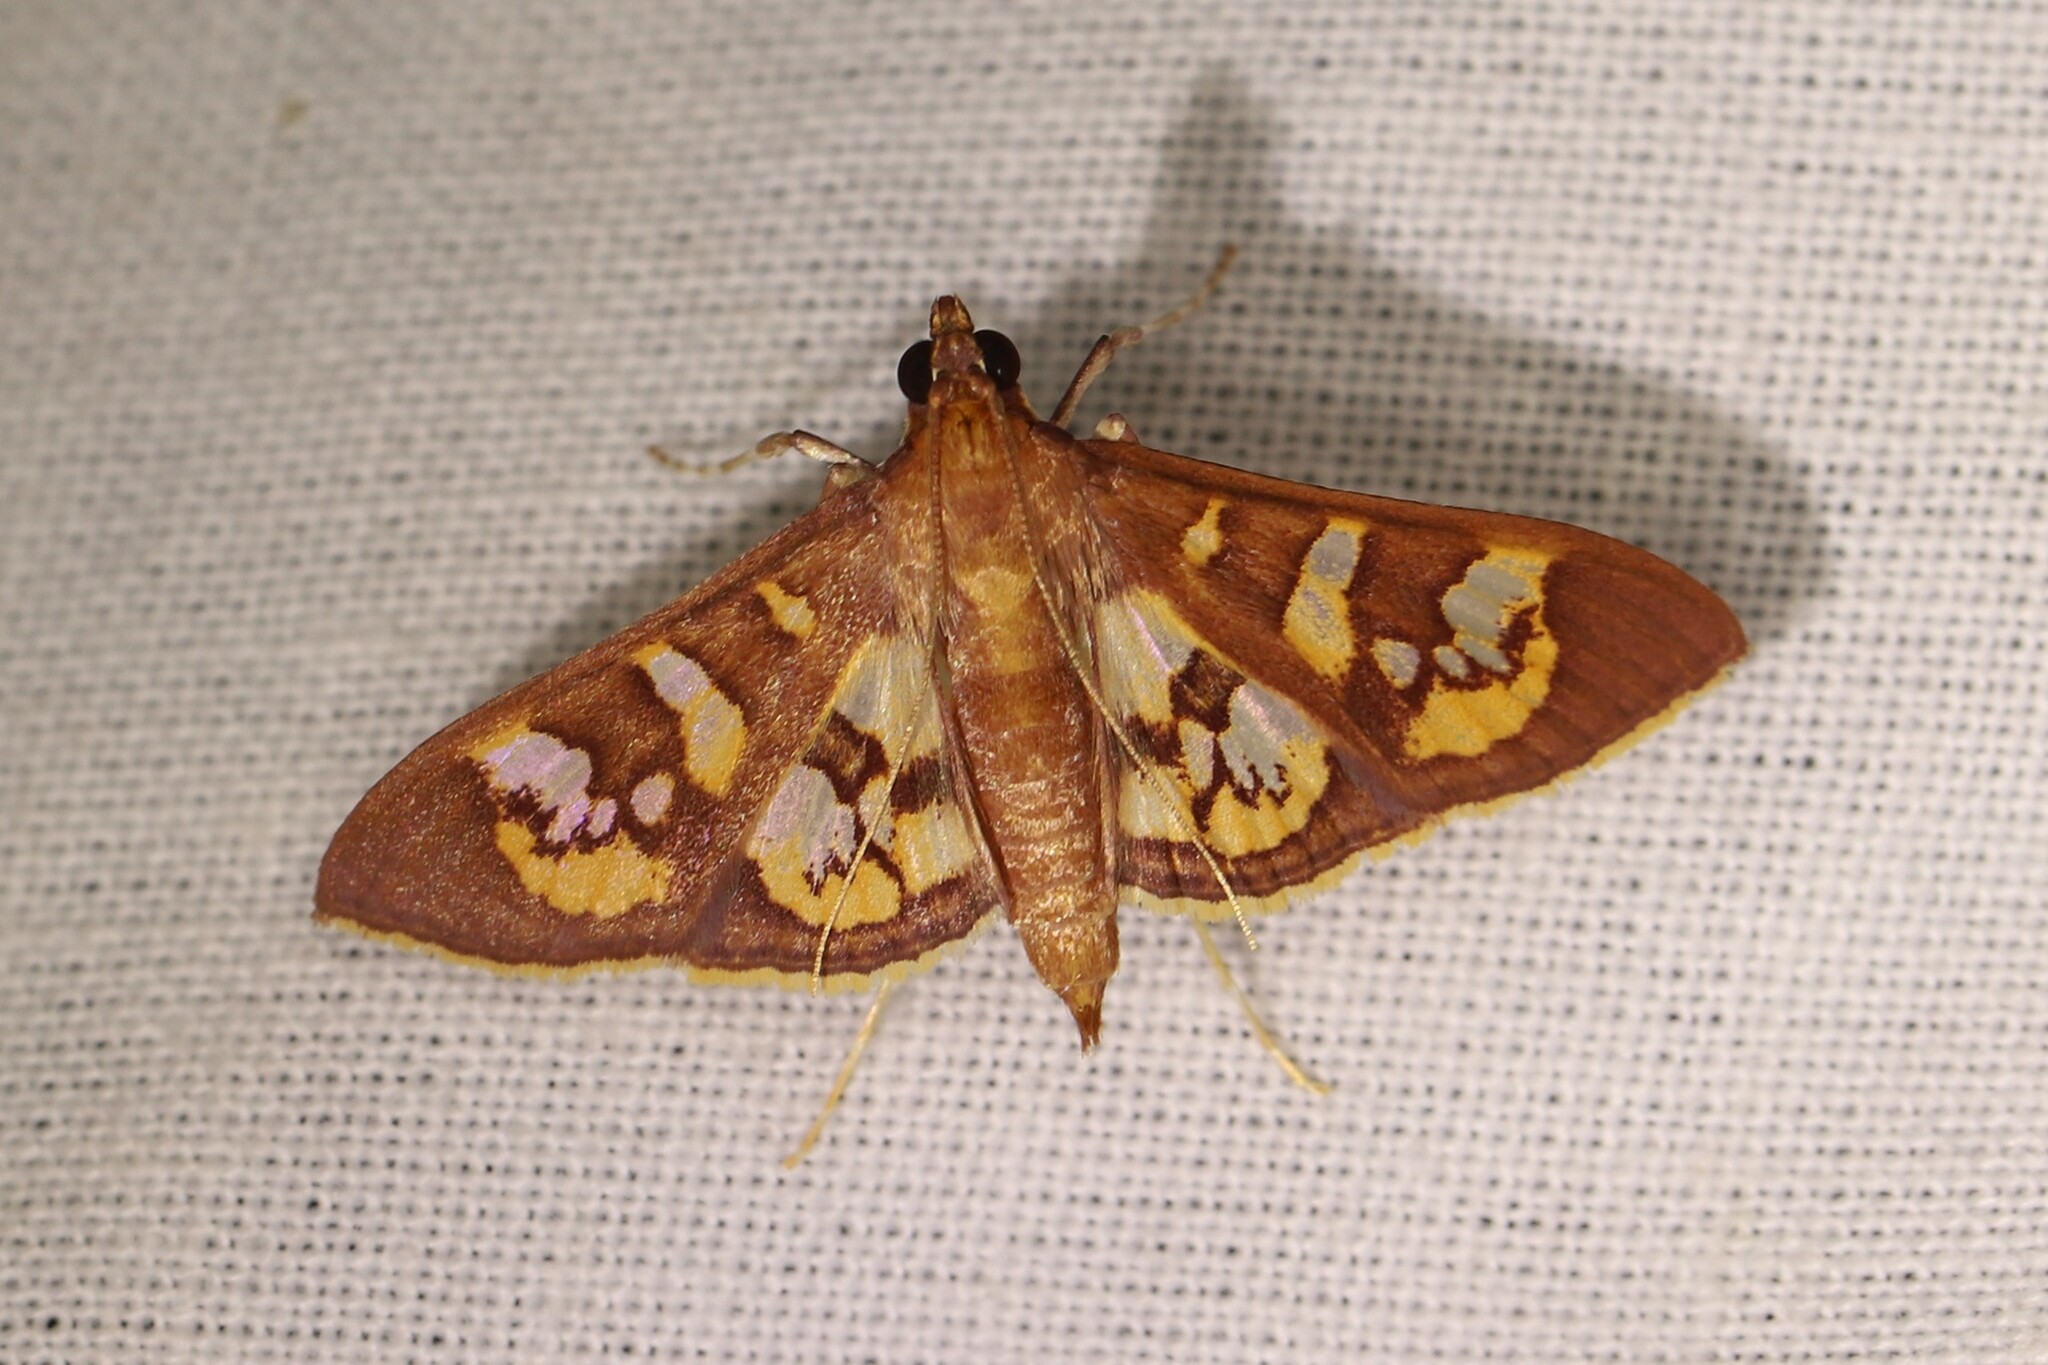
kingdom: Animalia
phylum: Arthropoda
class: Insecta
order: Lepidoptera
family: Crambidae
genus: Trithyris
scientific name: Trithyris Prenesta fenestrinalis
